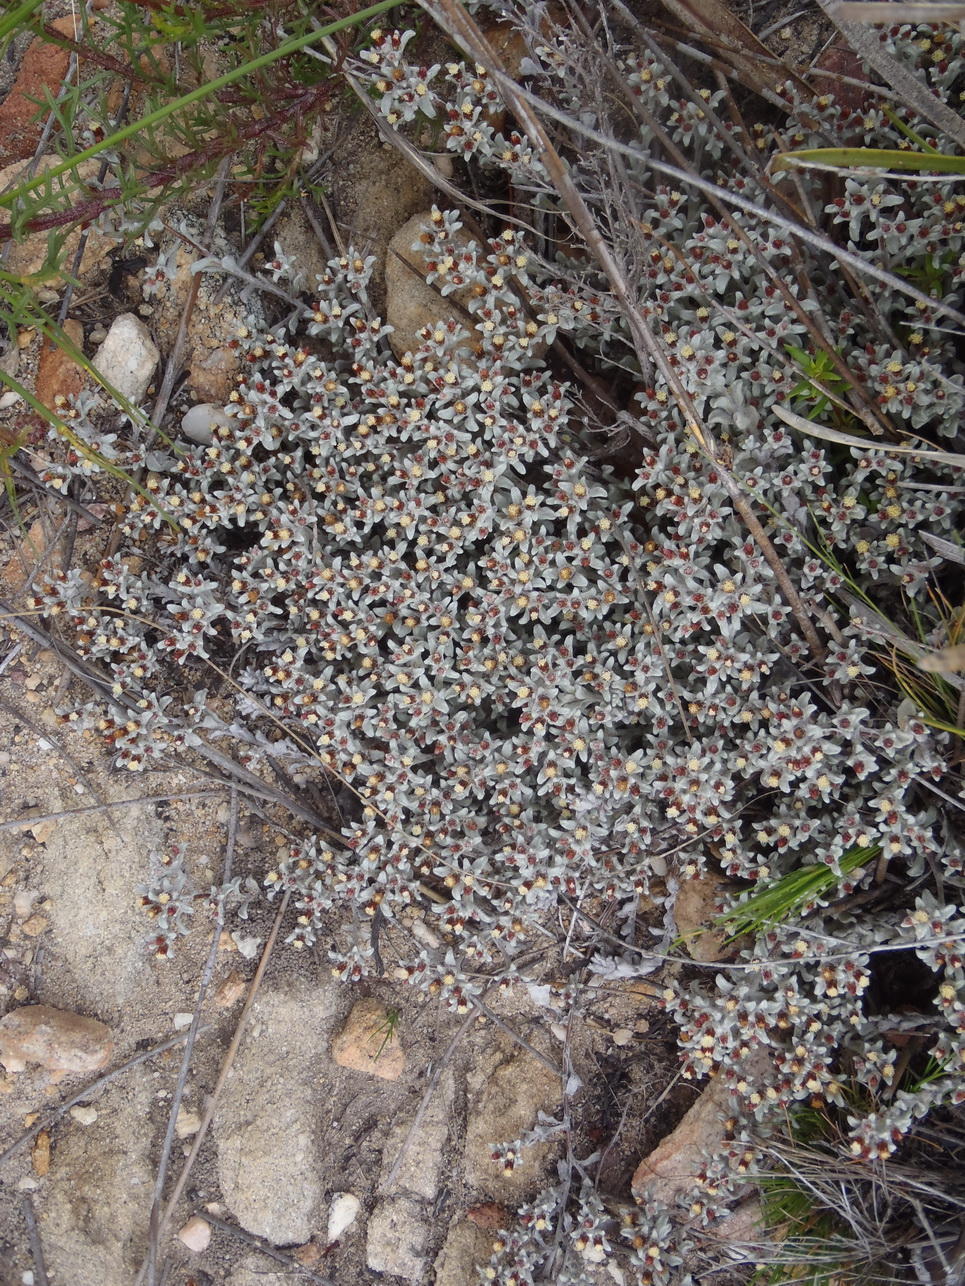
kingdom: Plantae
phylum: Tracheophyta
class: Magnoliopsida
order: Asterales
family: Asteraceae
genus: Helichrysum
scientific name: Helichrysum zwartbergense
